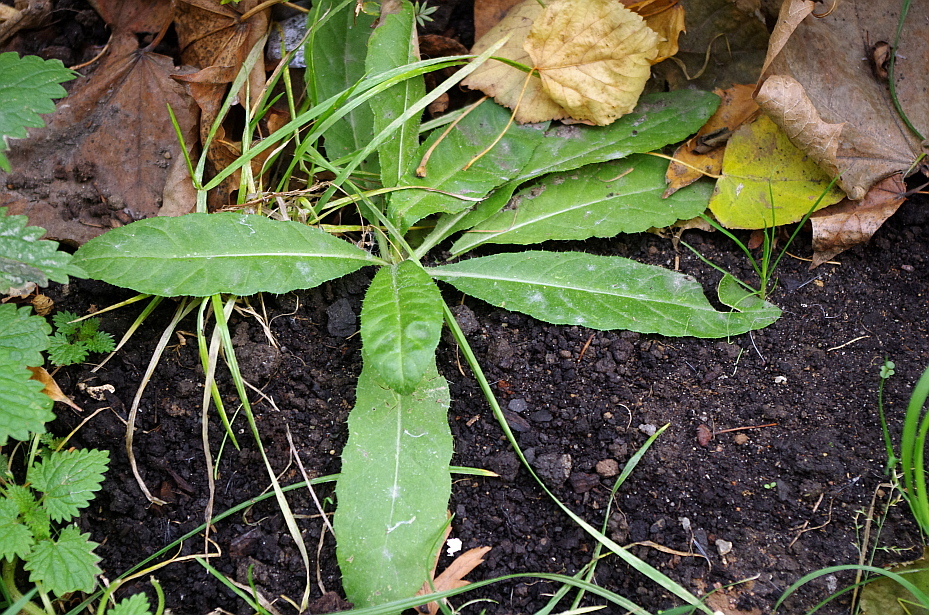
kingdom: Plantae
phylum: Tracheophyta
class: Magnoliopsida
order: Asterales
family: Asteraceae
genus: Cirsium
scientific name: Cirsium arvense
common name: Creeping thistle
